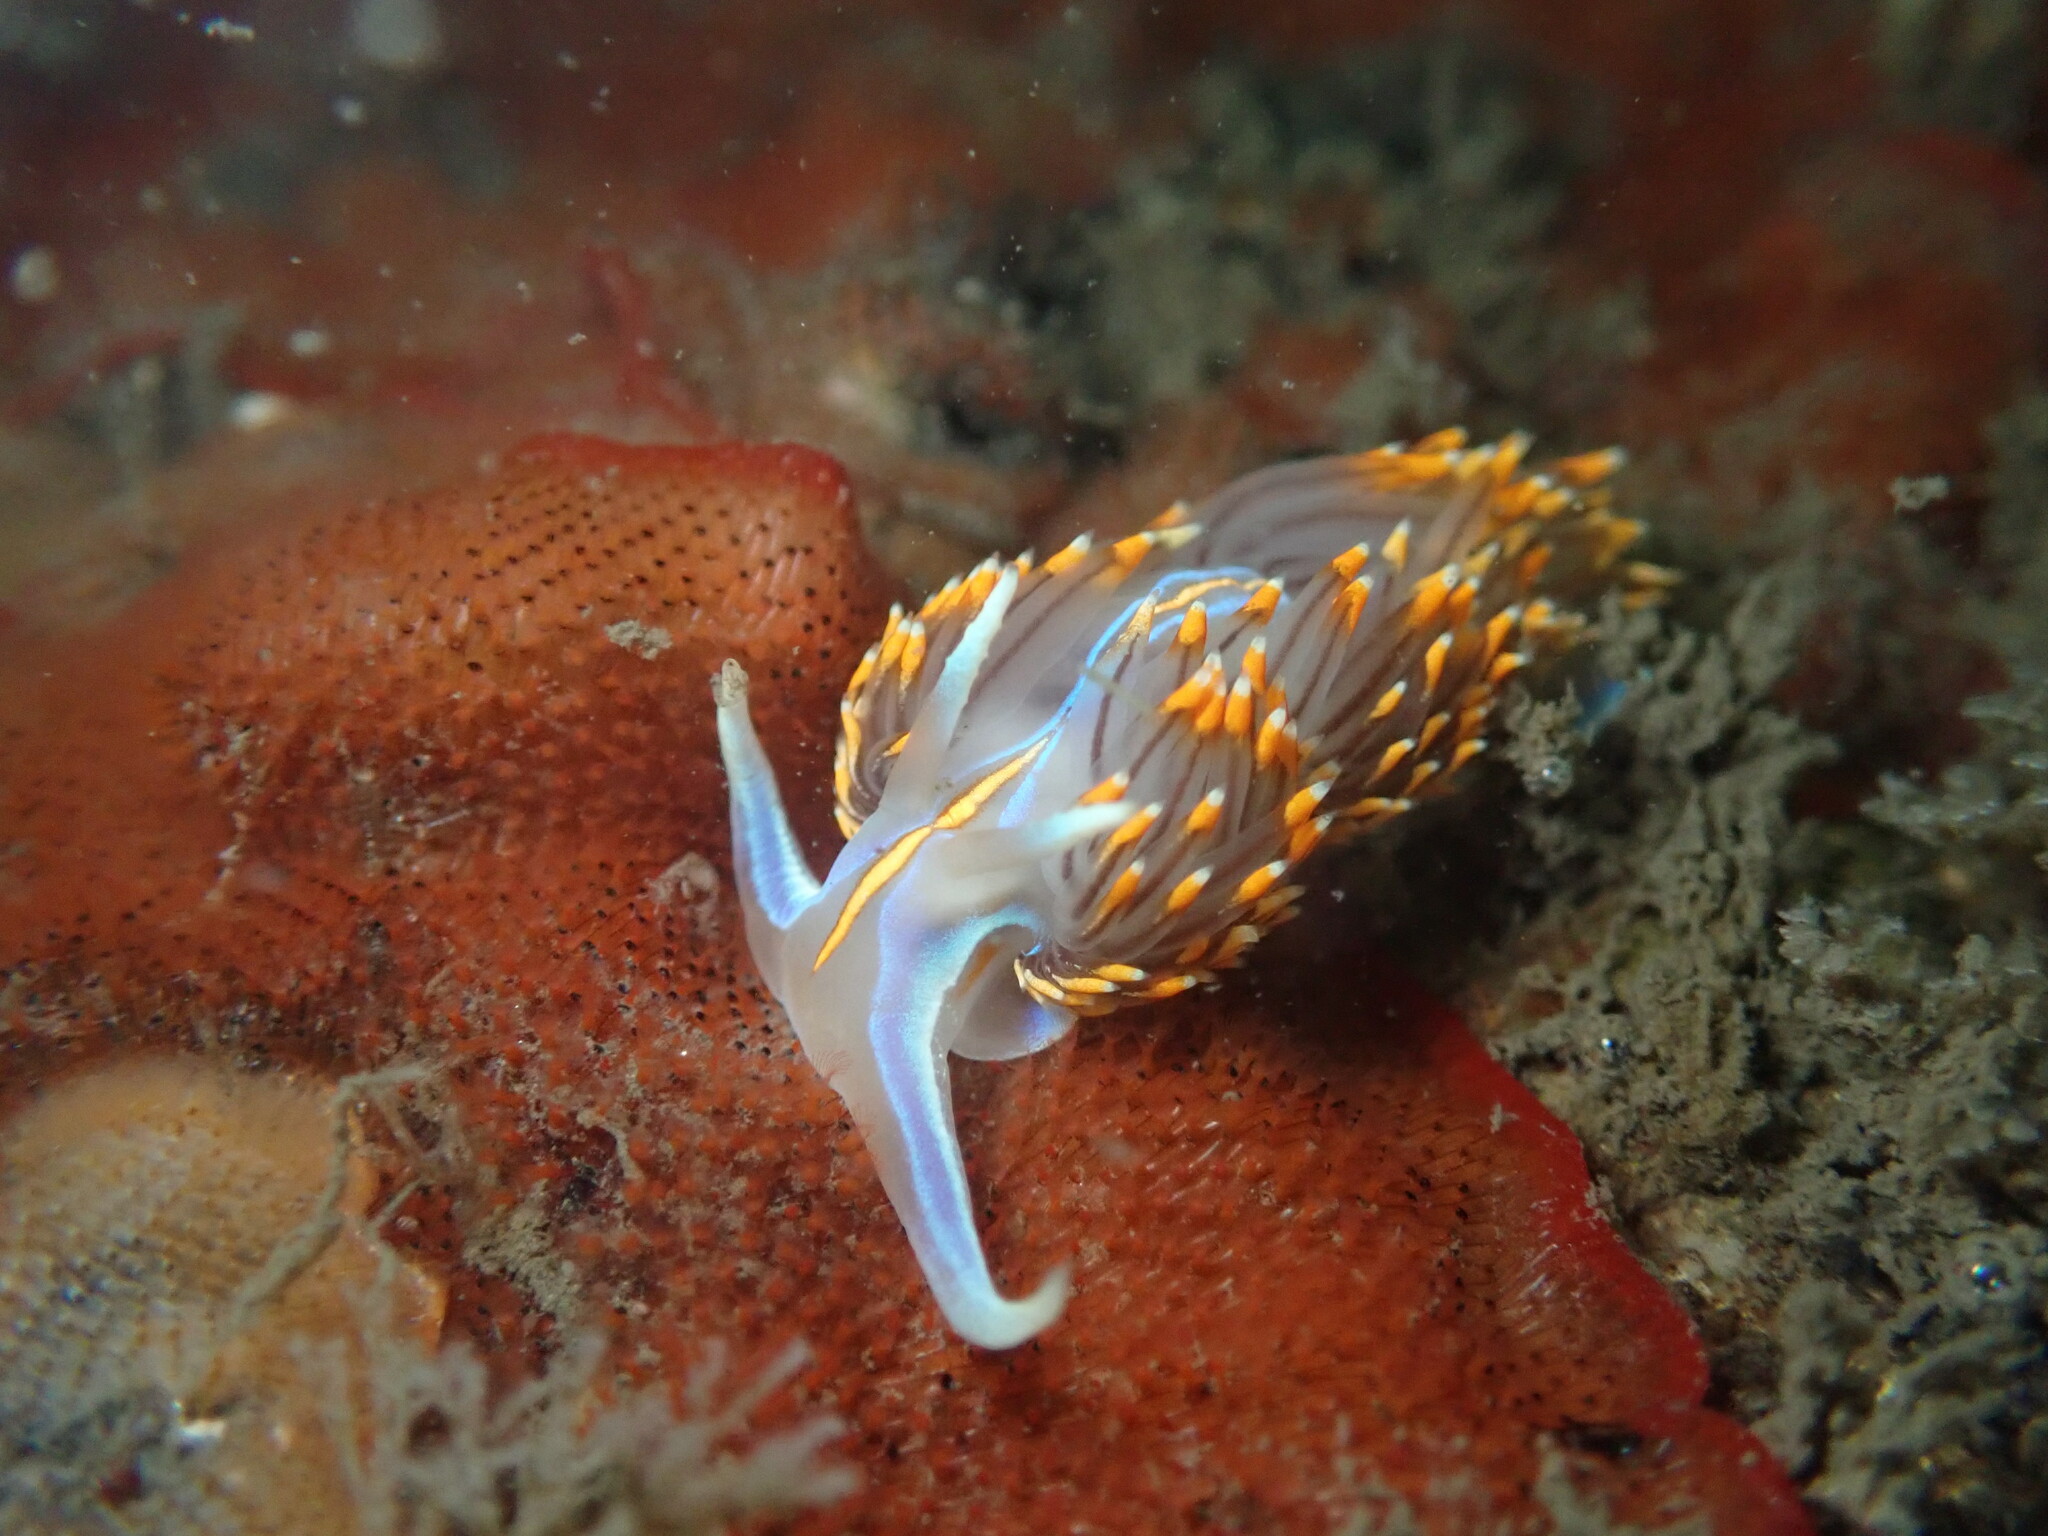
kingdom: Animalia
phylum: Mollusca
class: Gastropoda
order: Nudibranchia
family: Myrrhinidae
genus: Hermissenda
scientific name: Hermissenda opalescens
